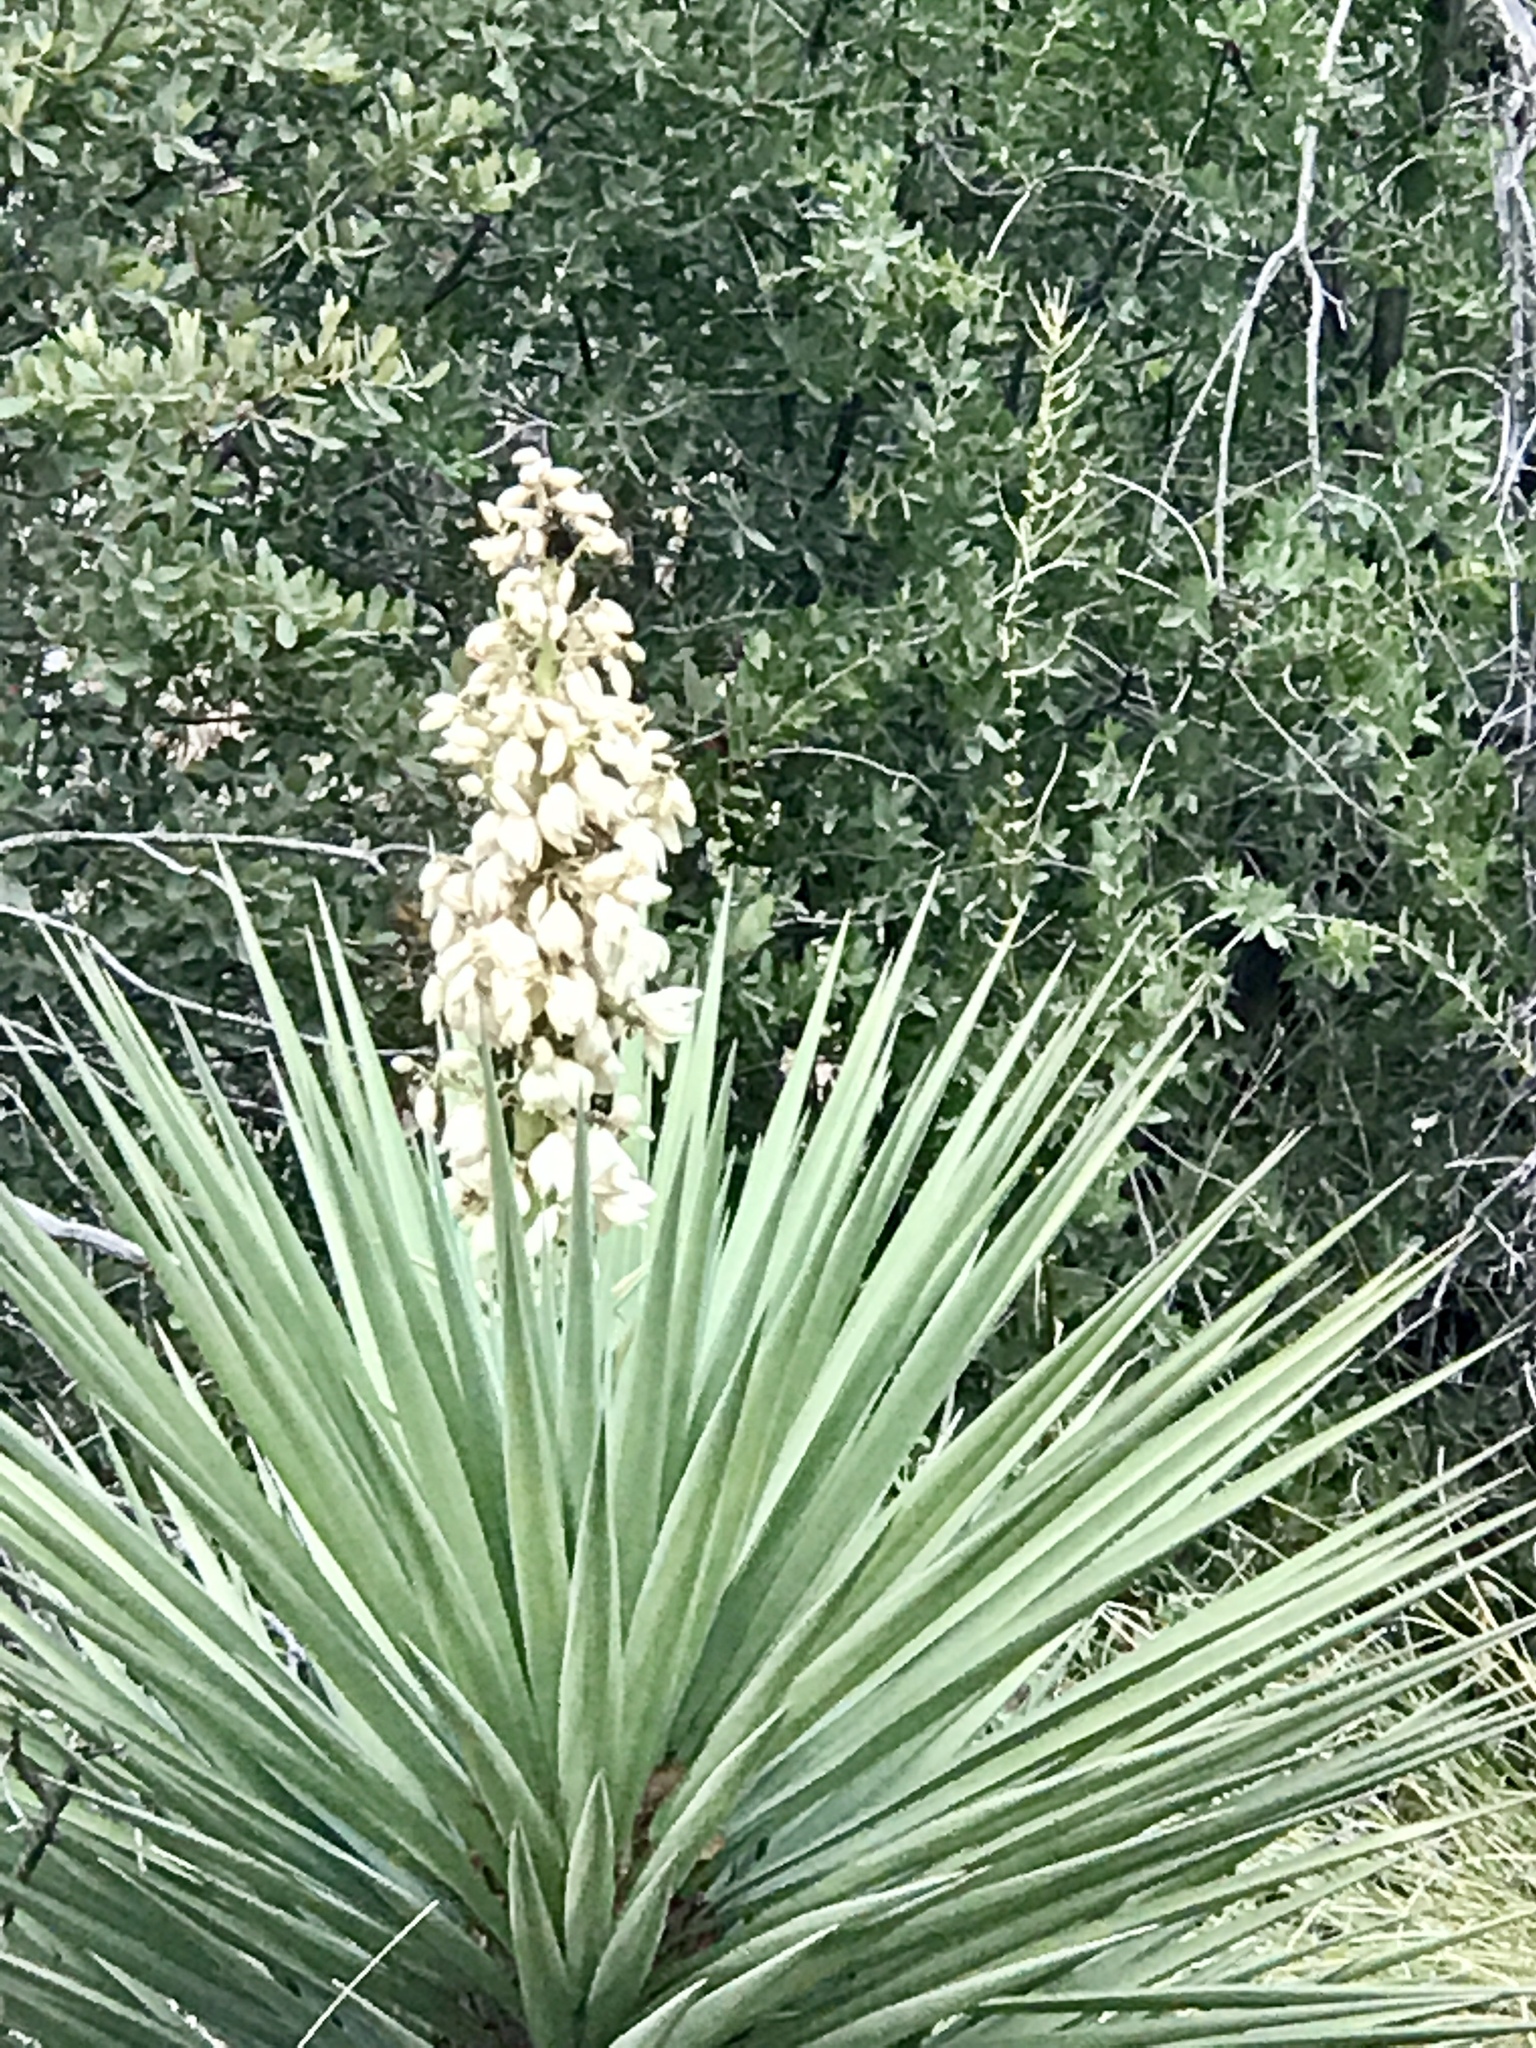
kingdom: Plantae
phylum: Tracheophyta
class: Liliopsida
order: Asparagales
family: Asparagaceae
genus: Yucca
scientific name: Yucca madrensis
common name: Hoary yucca
